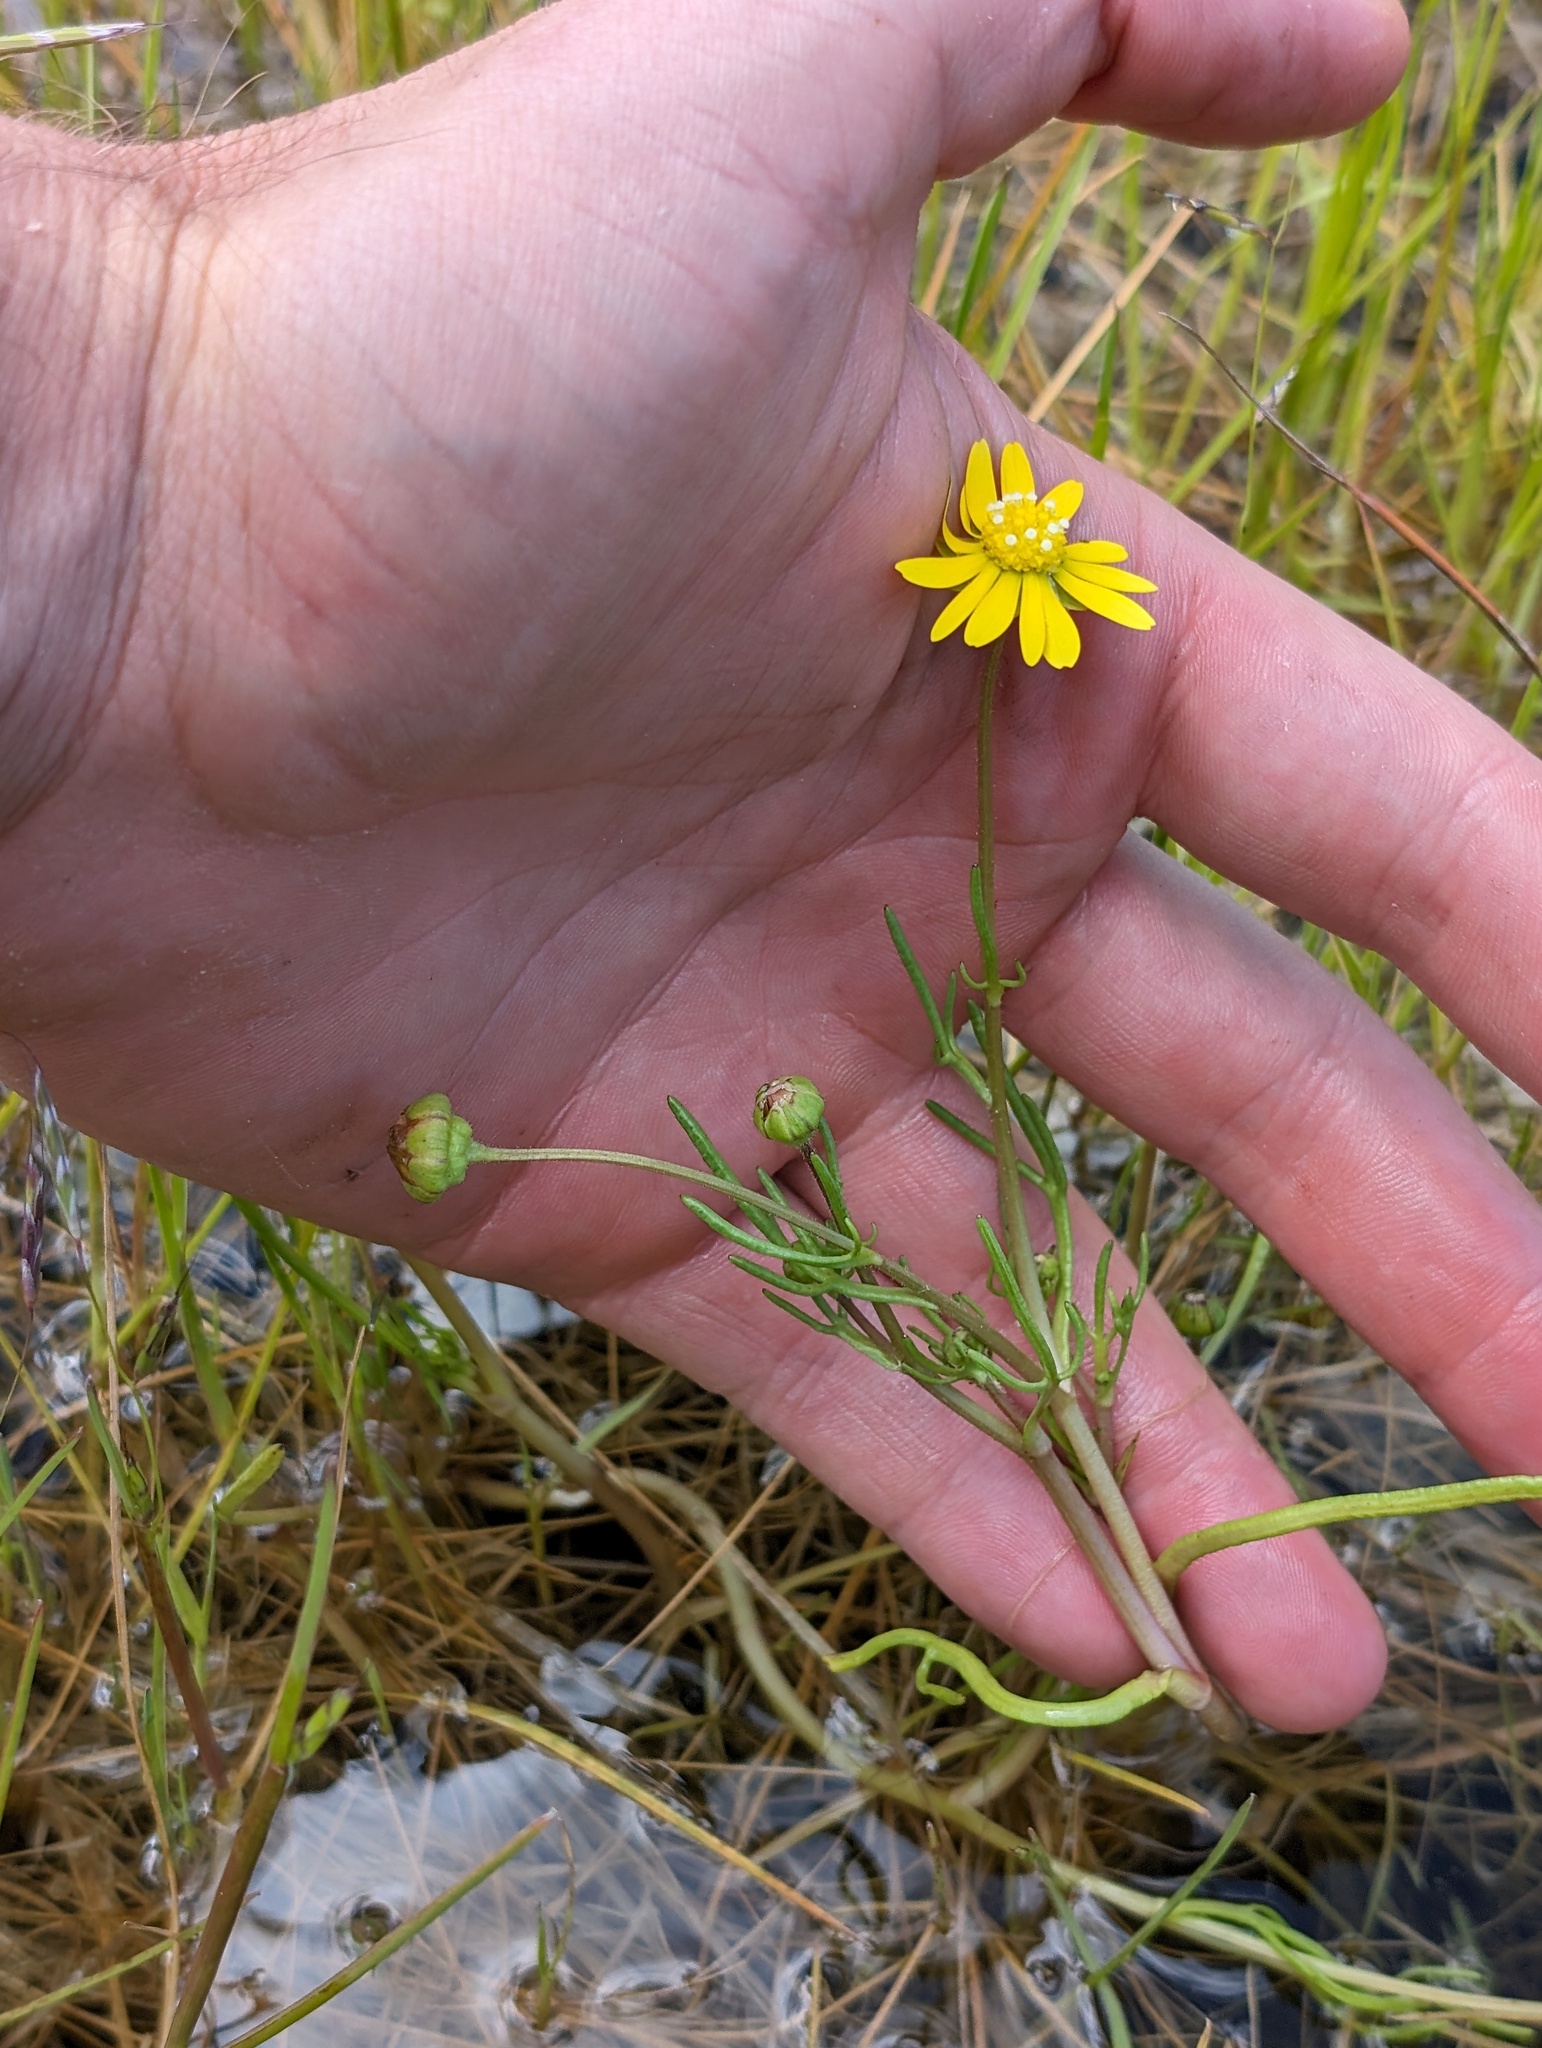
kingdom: Plantae
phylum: Tracheophyta
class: Magnoliopsida
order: Asterales
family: Asteraceae
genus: Blennosperma
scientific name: Blennosperma bakeri
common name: Sonoma sunshine
